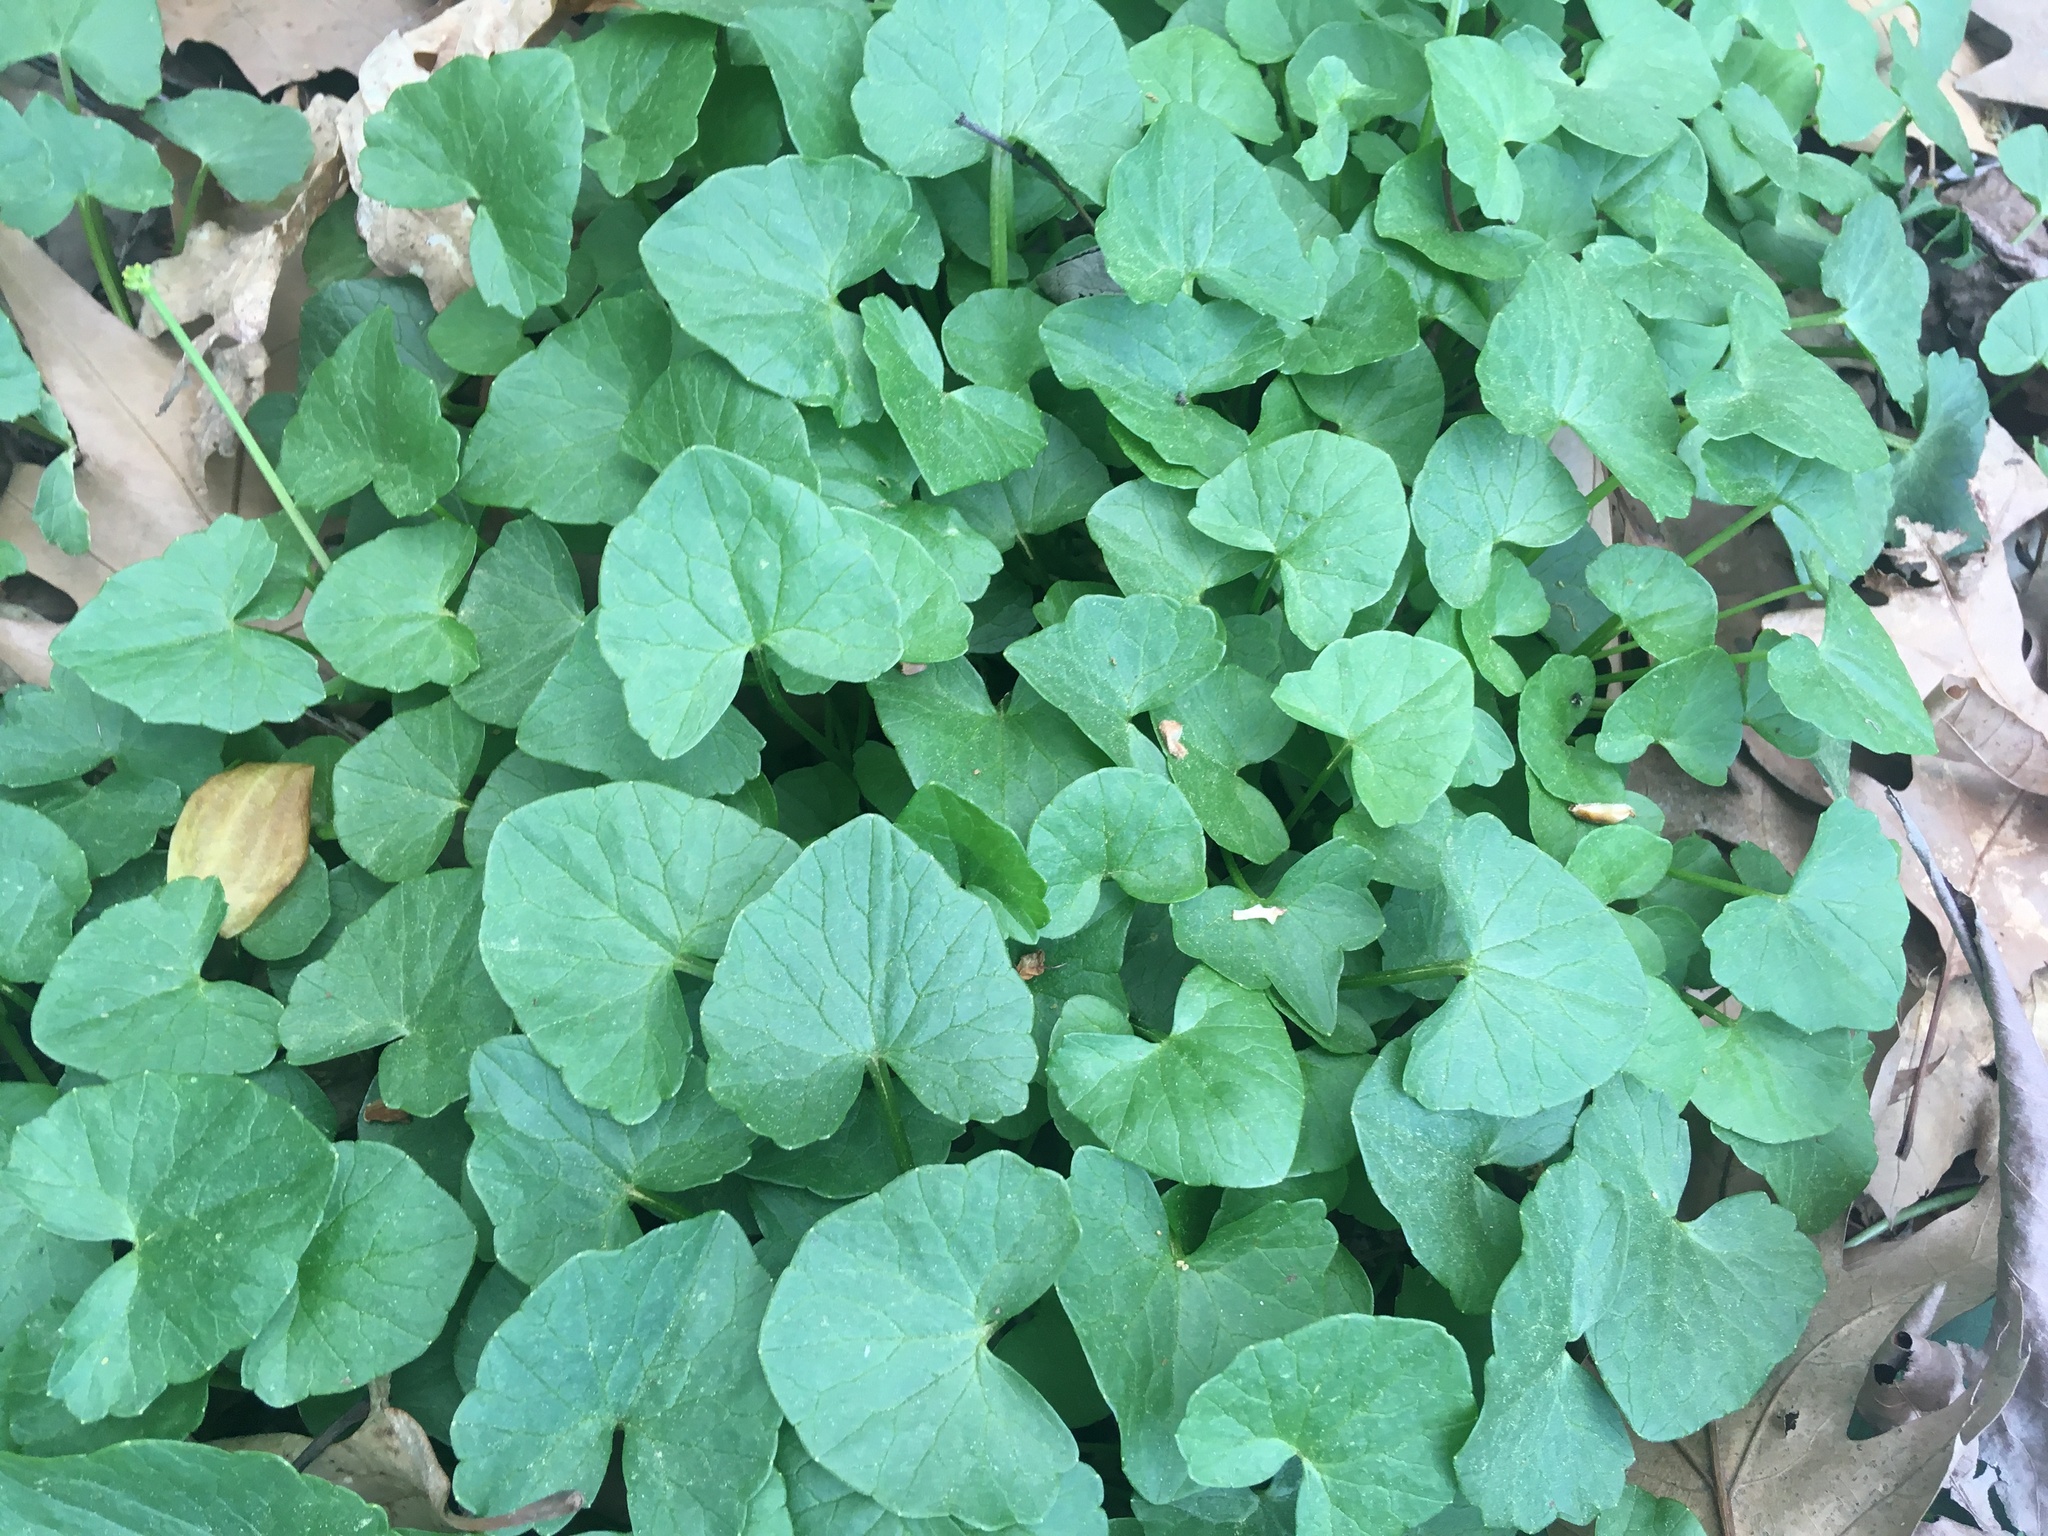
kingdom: Plantae
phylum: Tracheophyta
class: Magnoliopsida
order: Ranunculales
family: Ranunculaceae
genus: Ficaria
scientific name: Ficaria verna
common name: Lesser celandine
